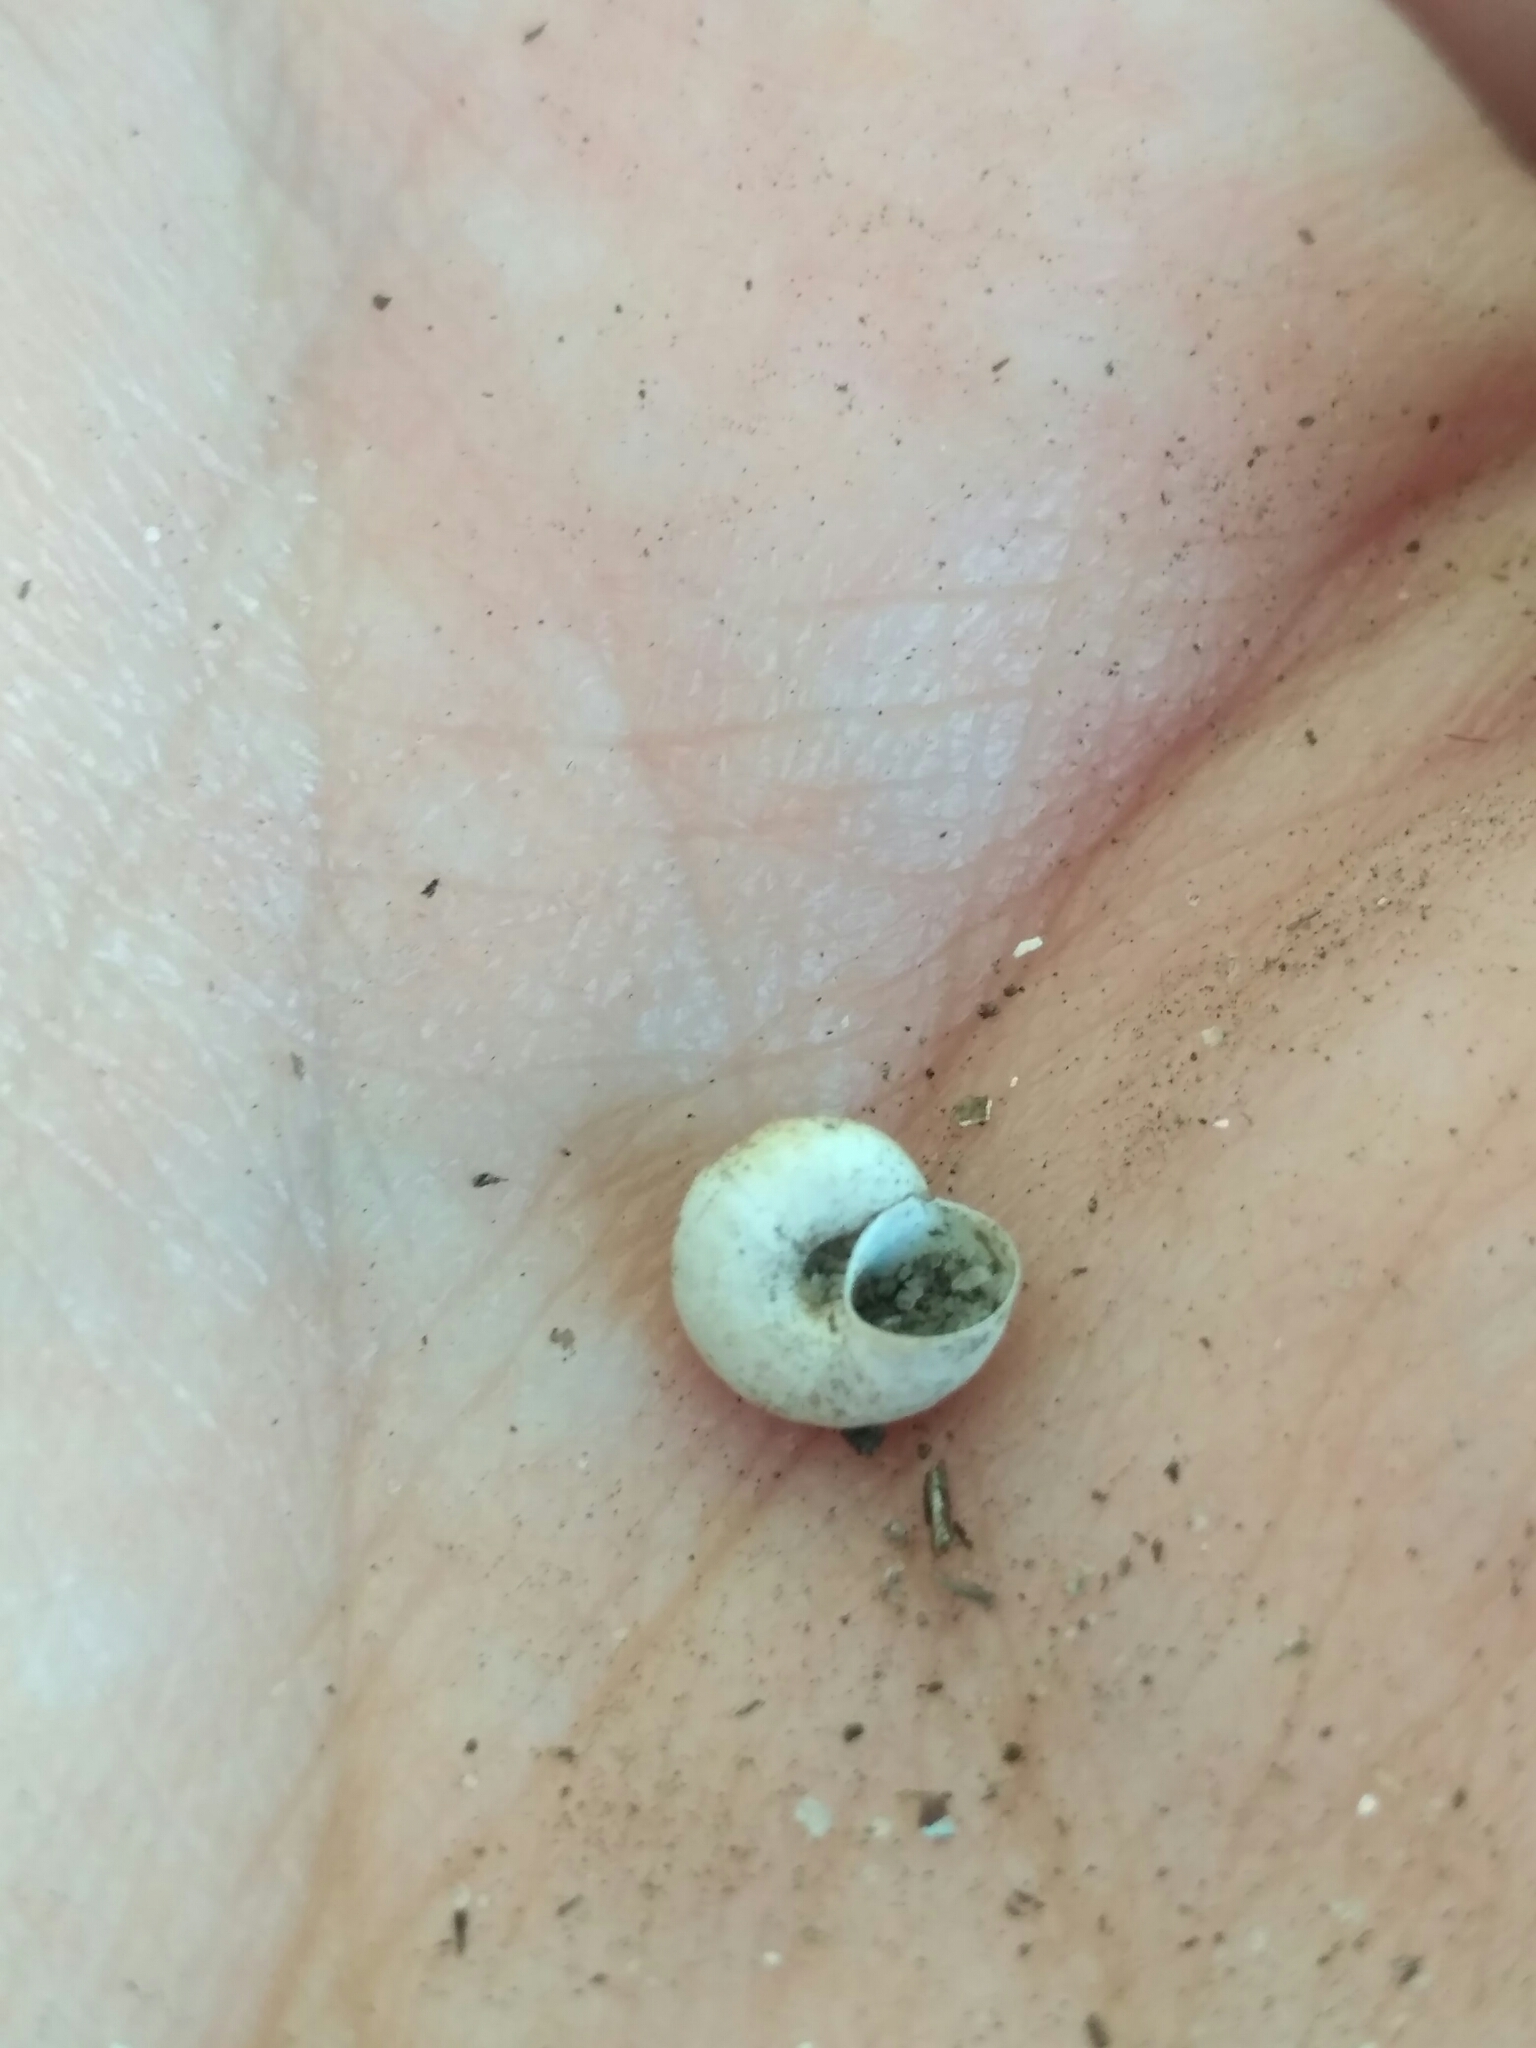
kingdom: Animalia
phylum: Mollusca
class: Gastropoda
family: Valvatidae
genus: Valvata
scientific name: Valvata piscinalis
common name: European valve snail
